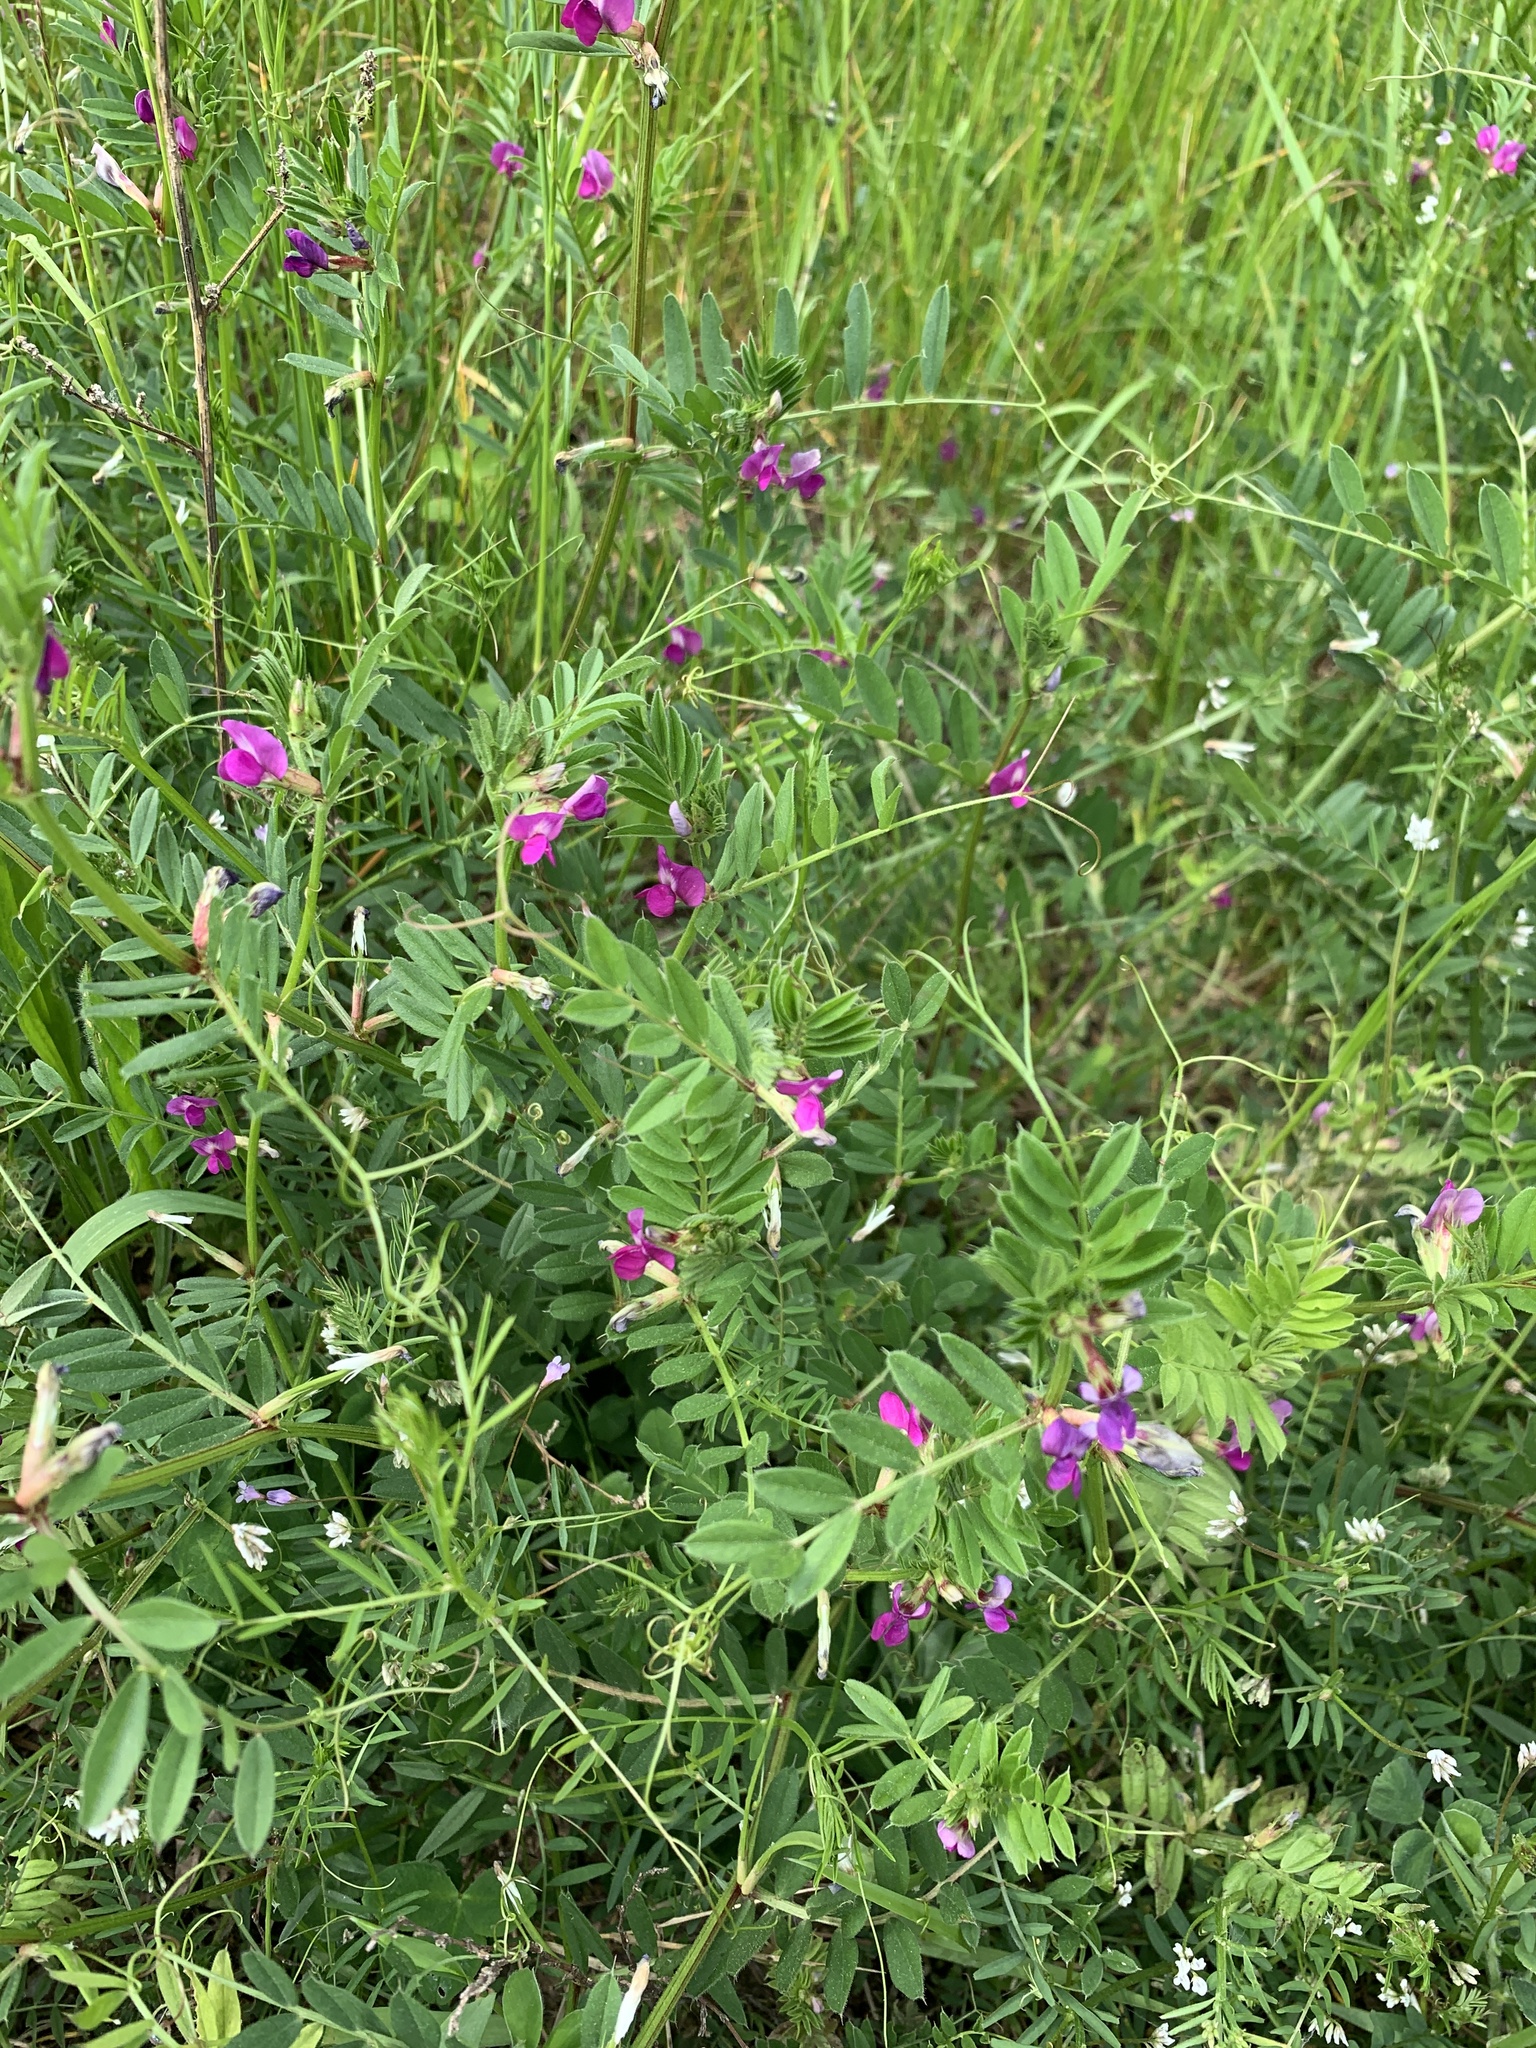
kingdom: Plantae
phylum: Tracheophyta
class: Magnoliopsida
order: Fabales
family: Fabaceae
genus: Vicia
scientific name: Vicia sativa
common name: Garden vetch
